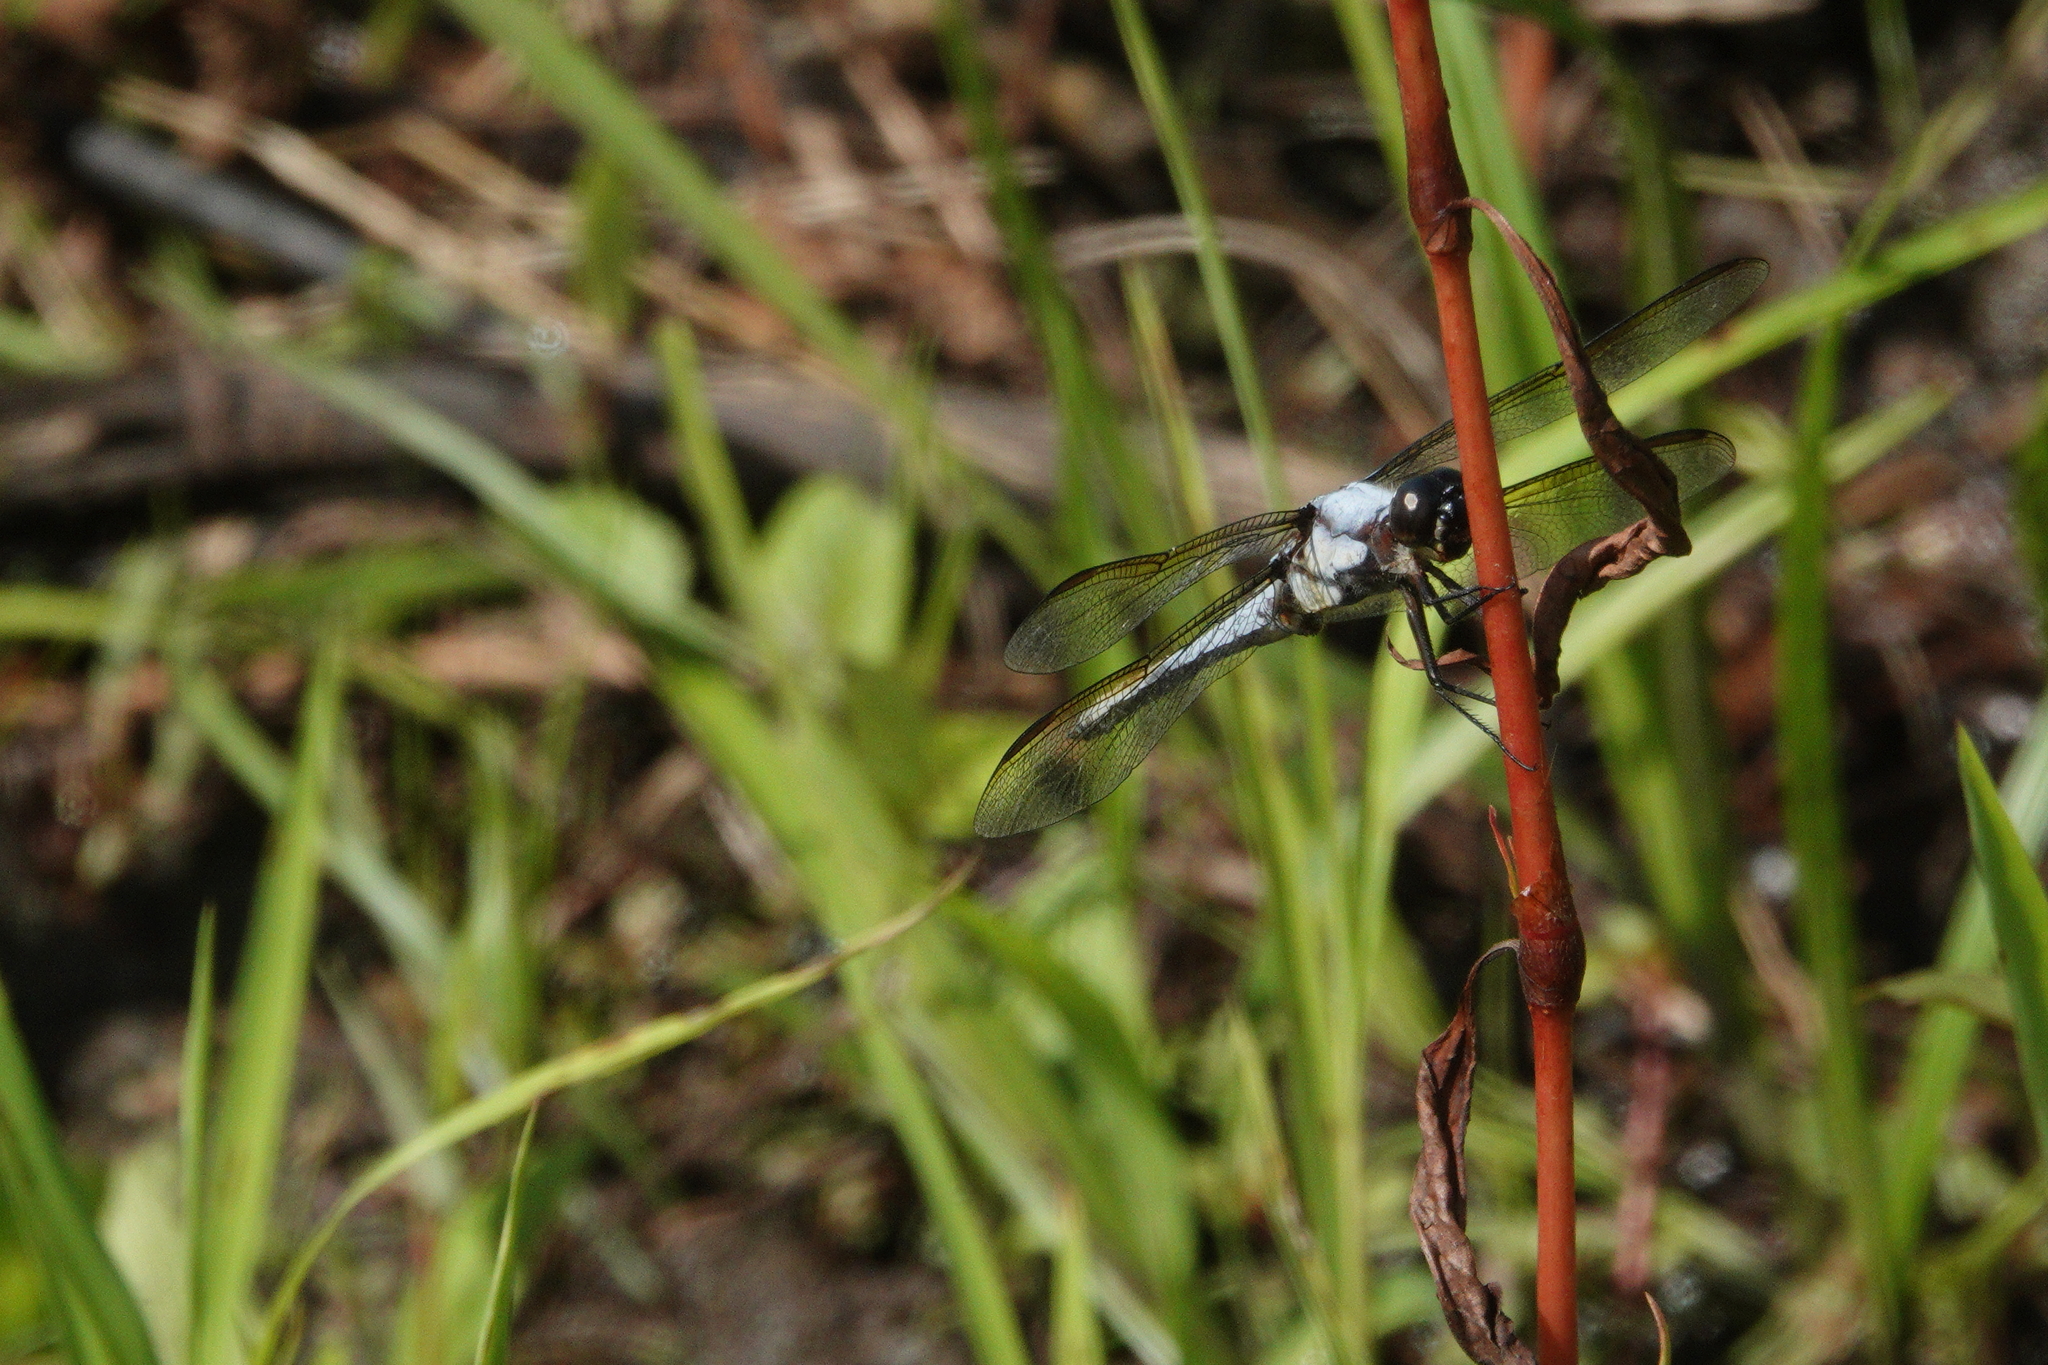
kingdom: Animalia
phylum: Arthropoda
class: Insecta
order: Odonata
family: Libellulidae
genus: Libellula
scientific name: Libellula flavida
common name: Yellow-sided skimmer
